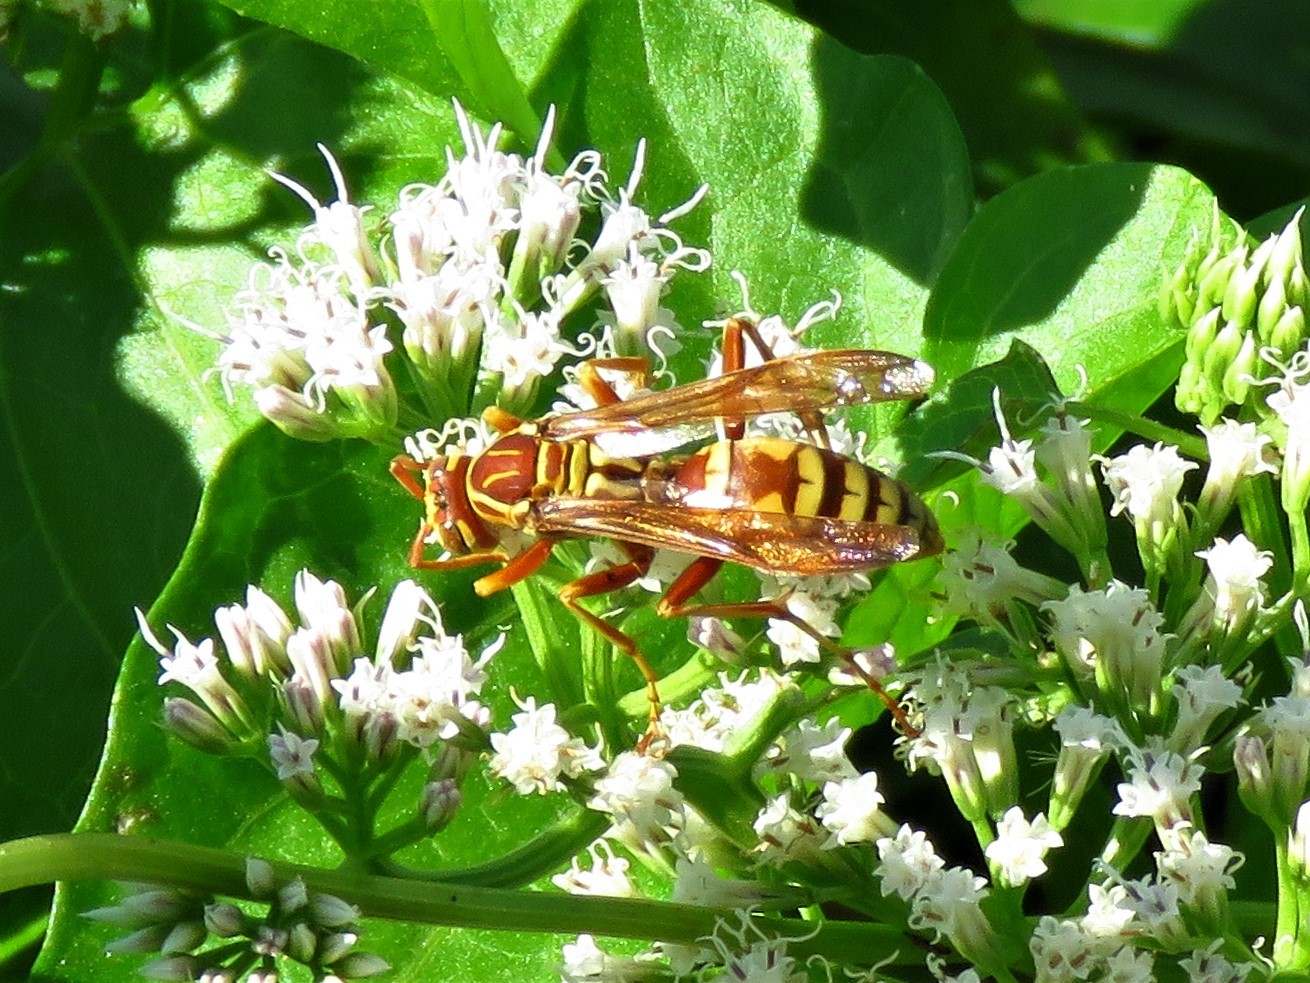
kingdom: Animalia
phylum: Arthropoda
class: Insecta
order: Hymenoptera
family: Eumenidae
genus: Polistes
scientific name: Polistes apachus
